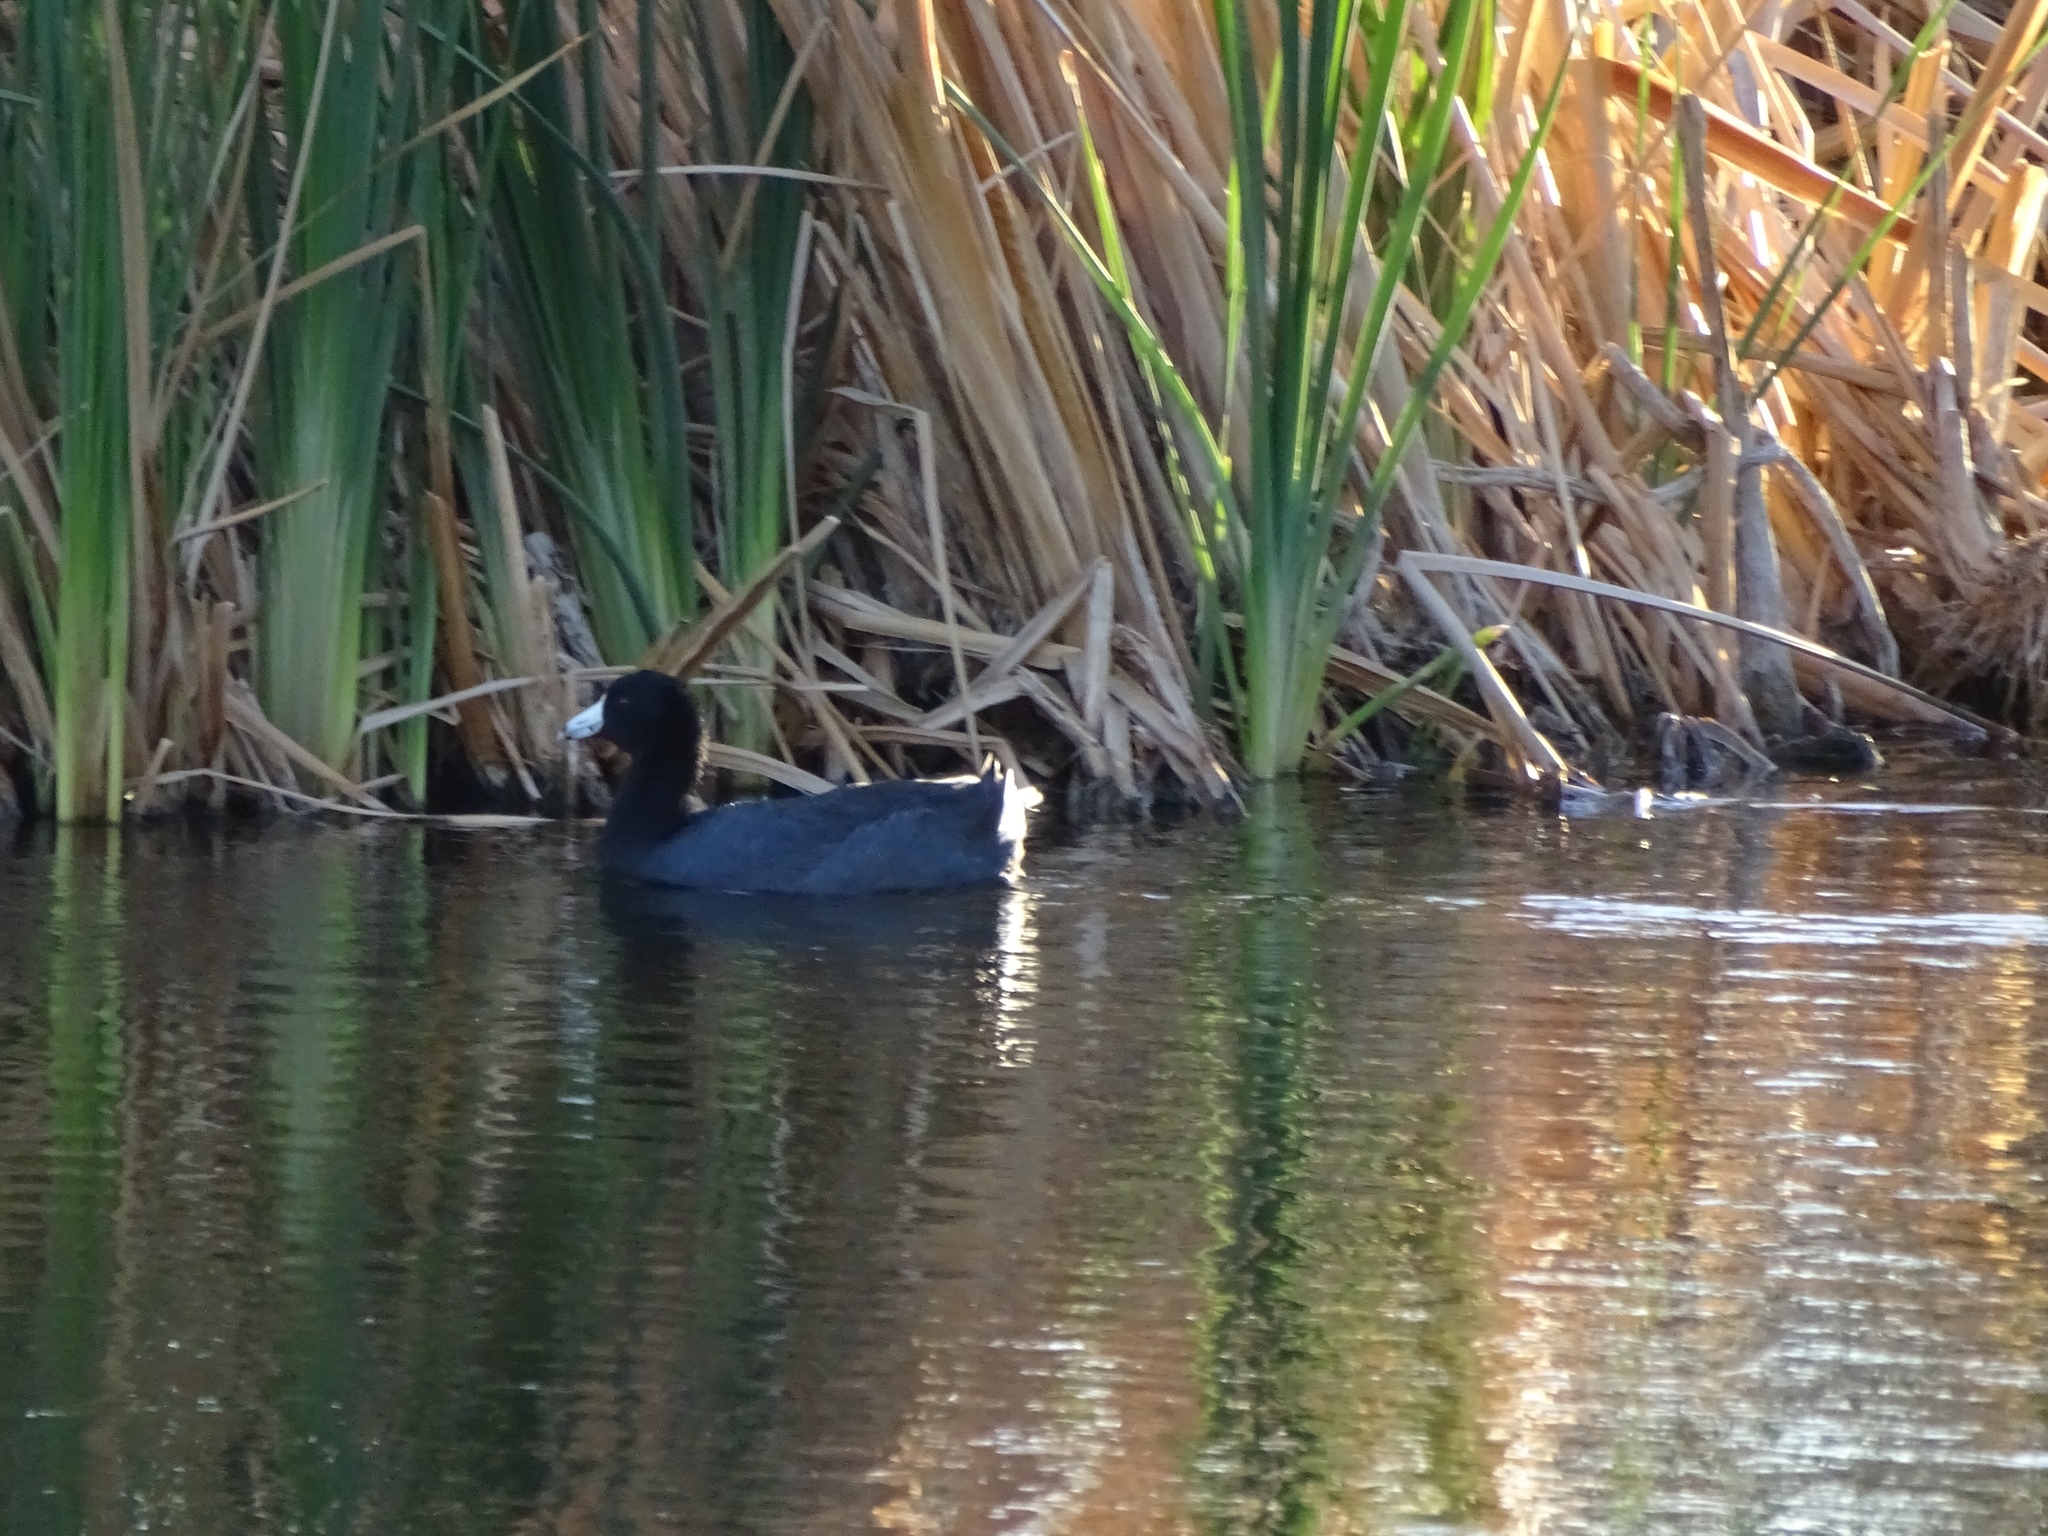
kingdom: Animalia
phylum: Chordata
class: Aves
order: Gruiformes
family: Rallidae
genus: Fulica
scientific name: Fulica americana
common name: American coot
